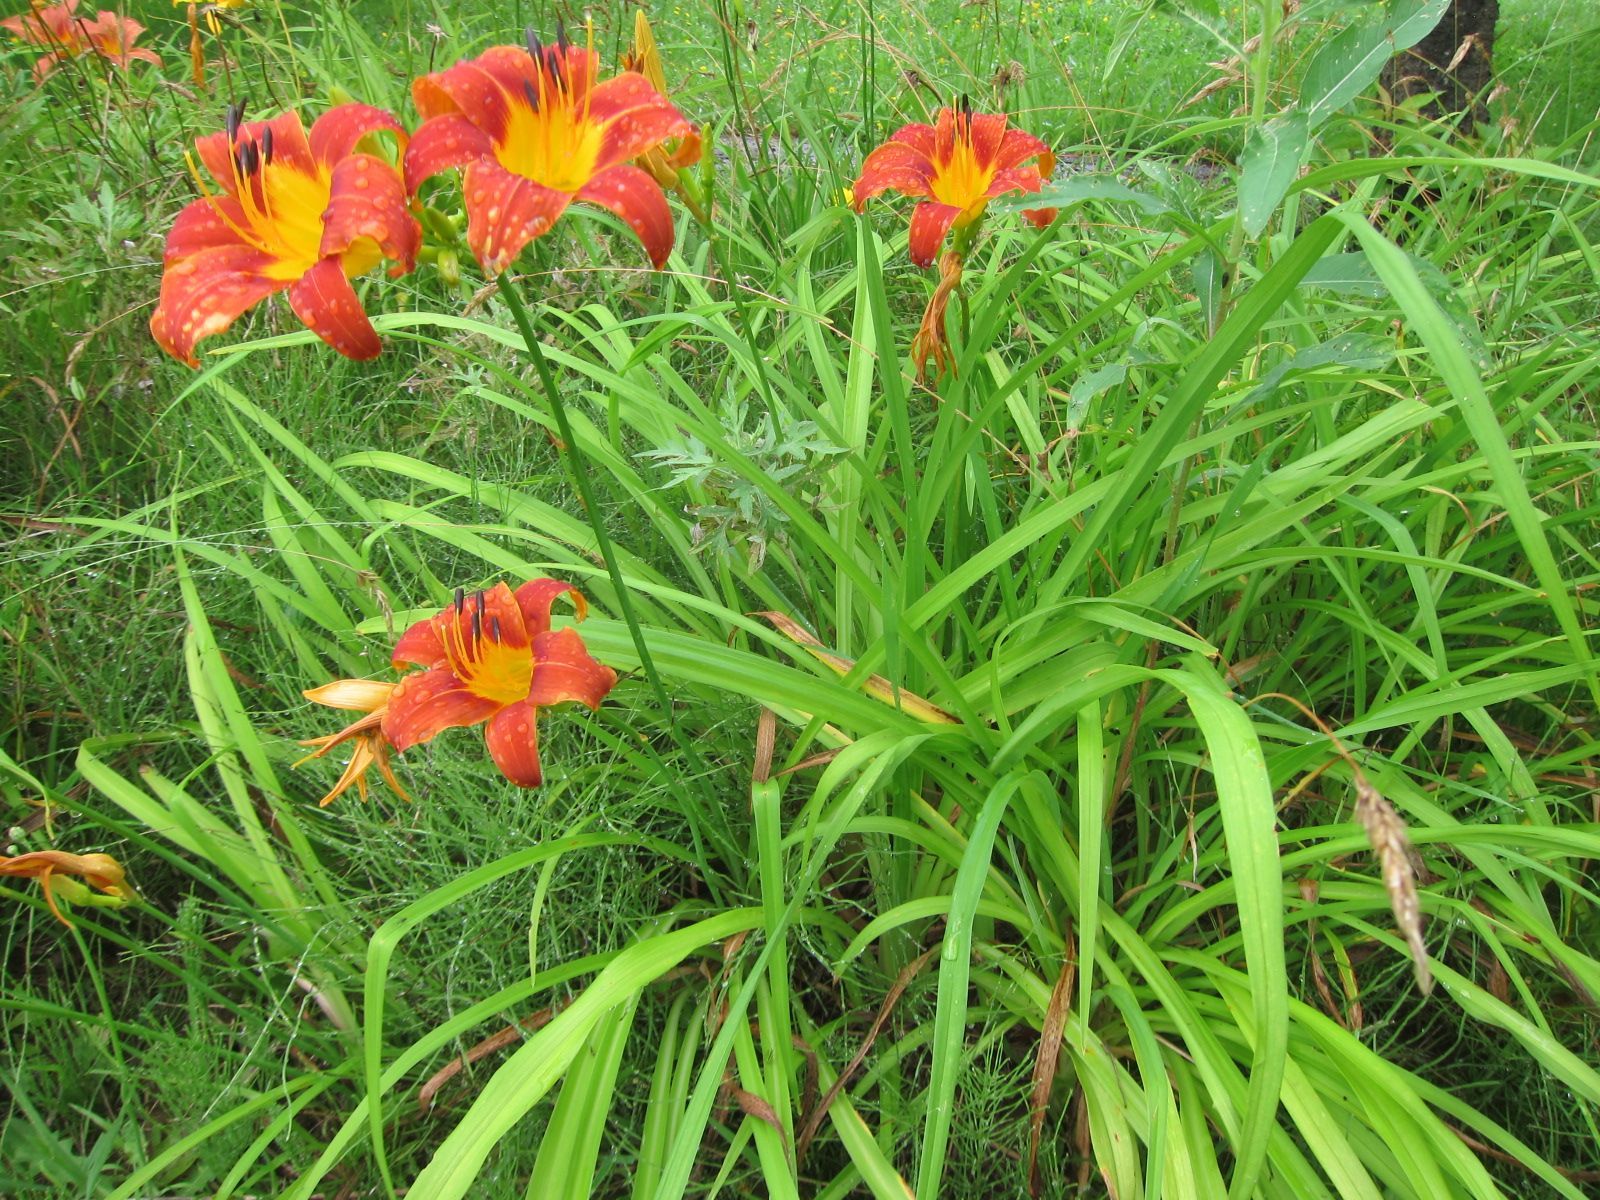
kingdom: Plantae
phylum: Tracheophyta
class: Liliopsida
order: Asparagales
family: Asphodelaceae
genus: Hemerocallis
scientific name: Hemerocallis fulva
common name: Orange day-lily
